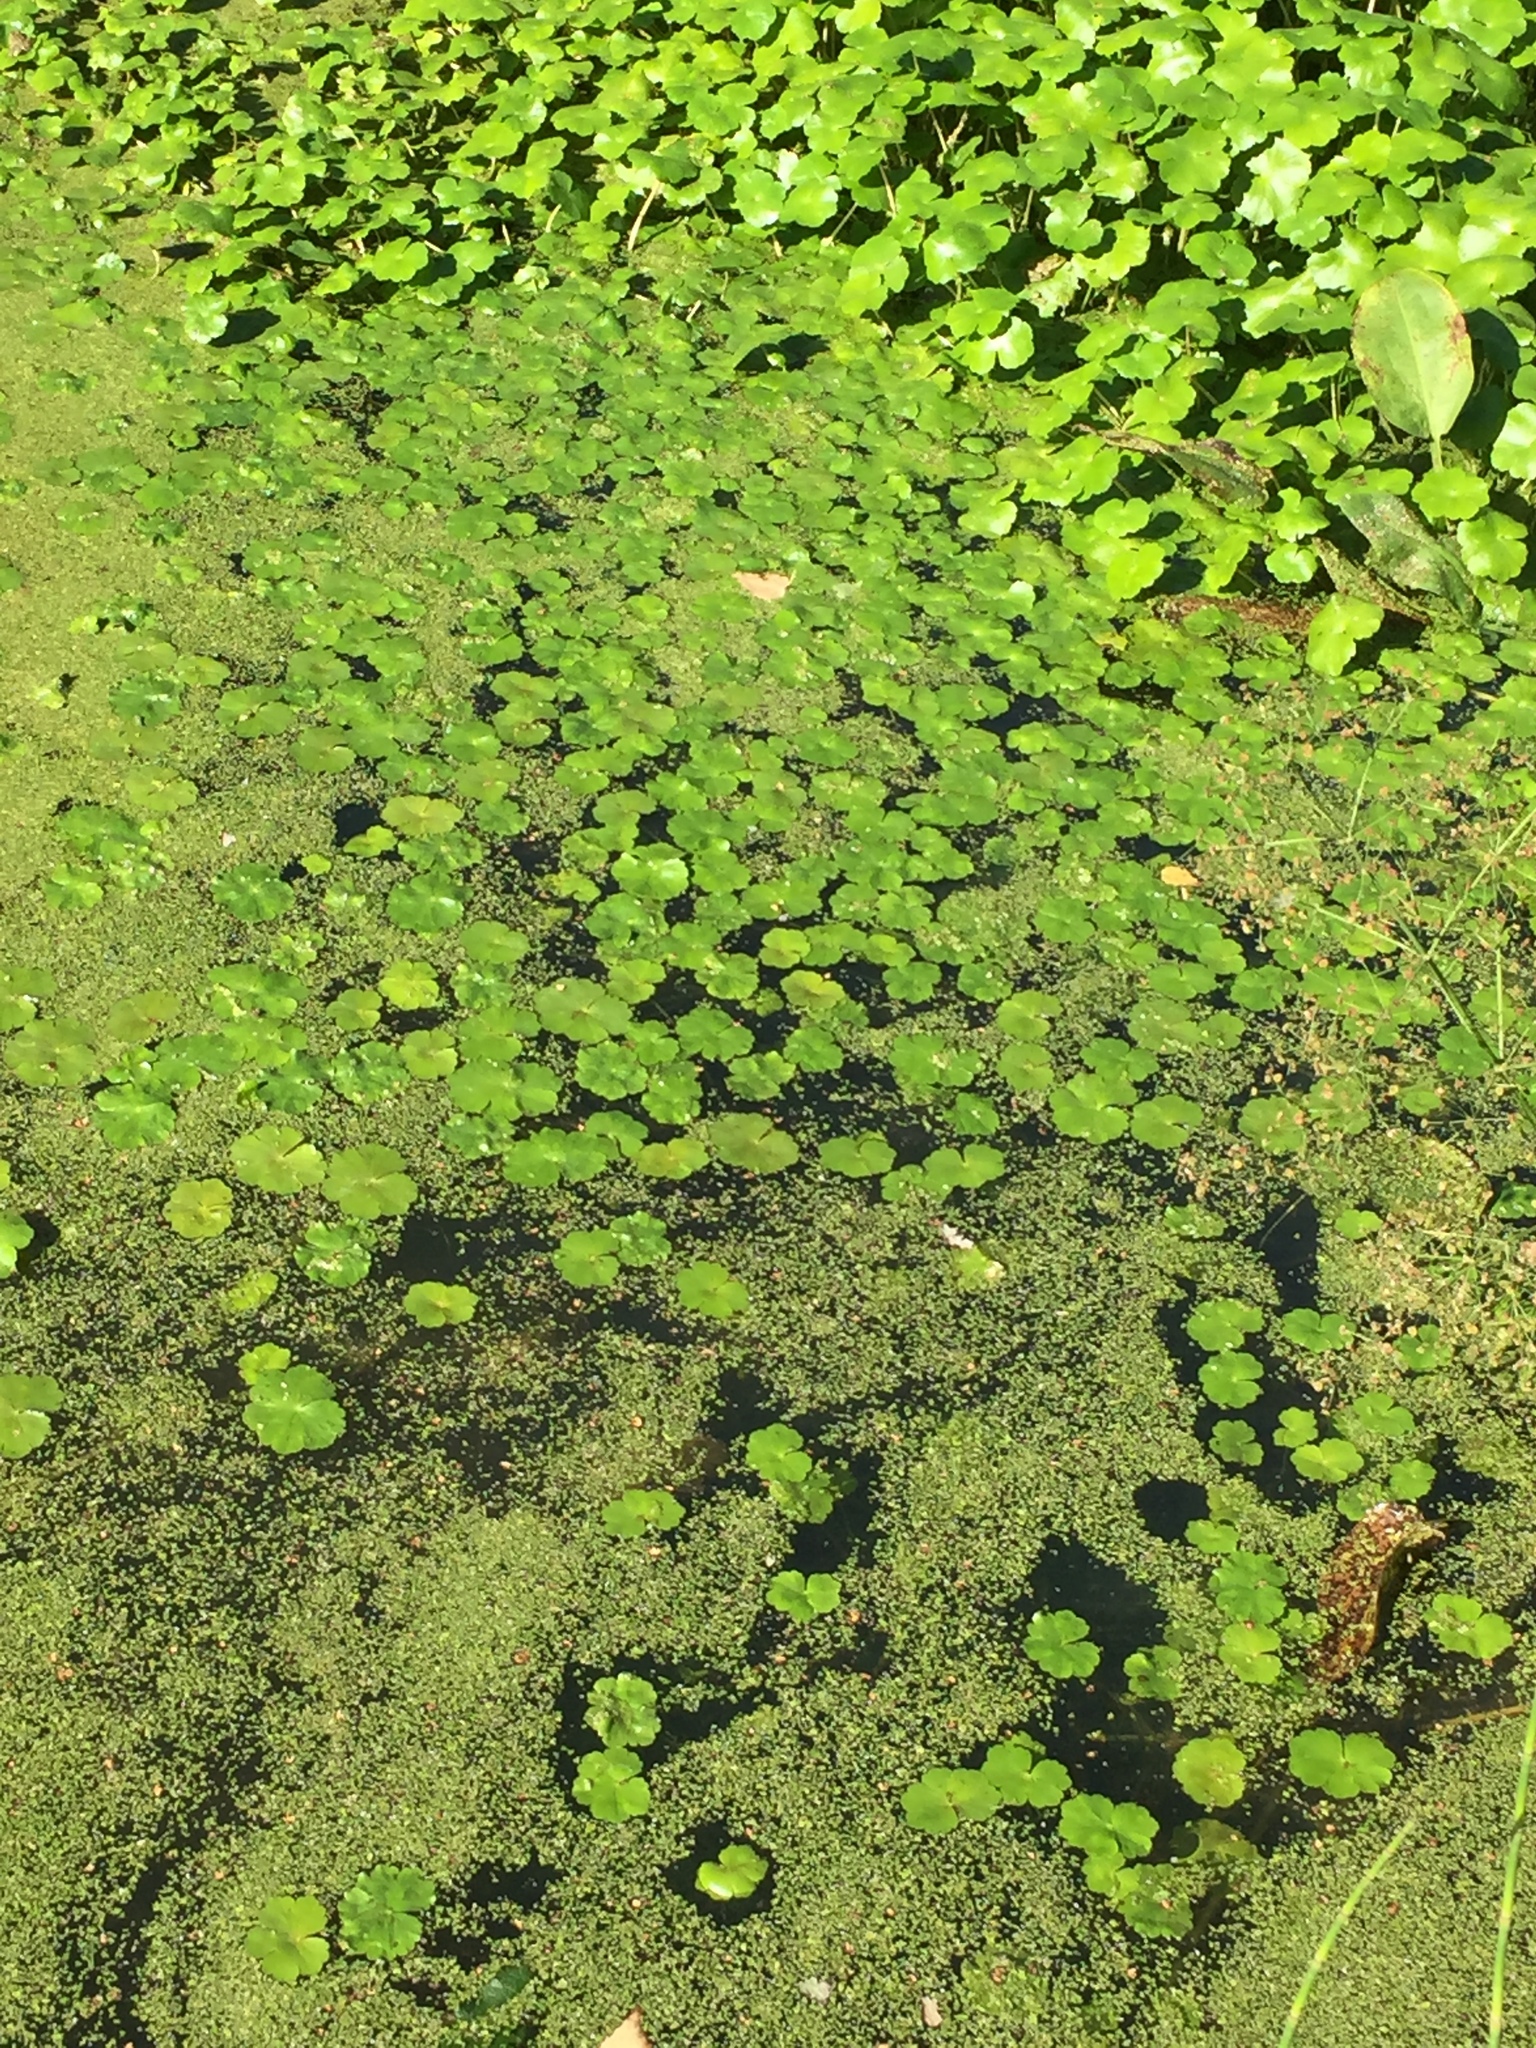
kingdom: Plantae
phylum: Tracheophyta
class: Magnoliopsida
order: Apiales
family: Araliaceae
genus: Hydrocotyle
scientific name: Hydrocotyle ranunculoides
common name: Floating pennywort
